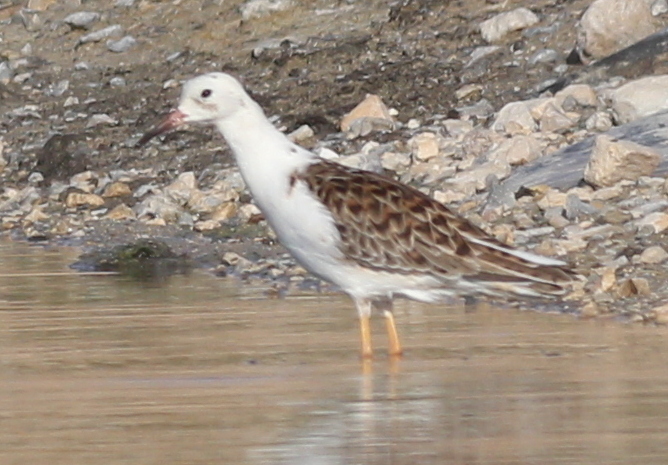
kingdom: Animalia
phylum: Chordata
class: Aves
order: Charadriiformes
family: Scolopacidae
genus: Calidris
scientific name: Calidris pugnax
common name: Ruff
